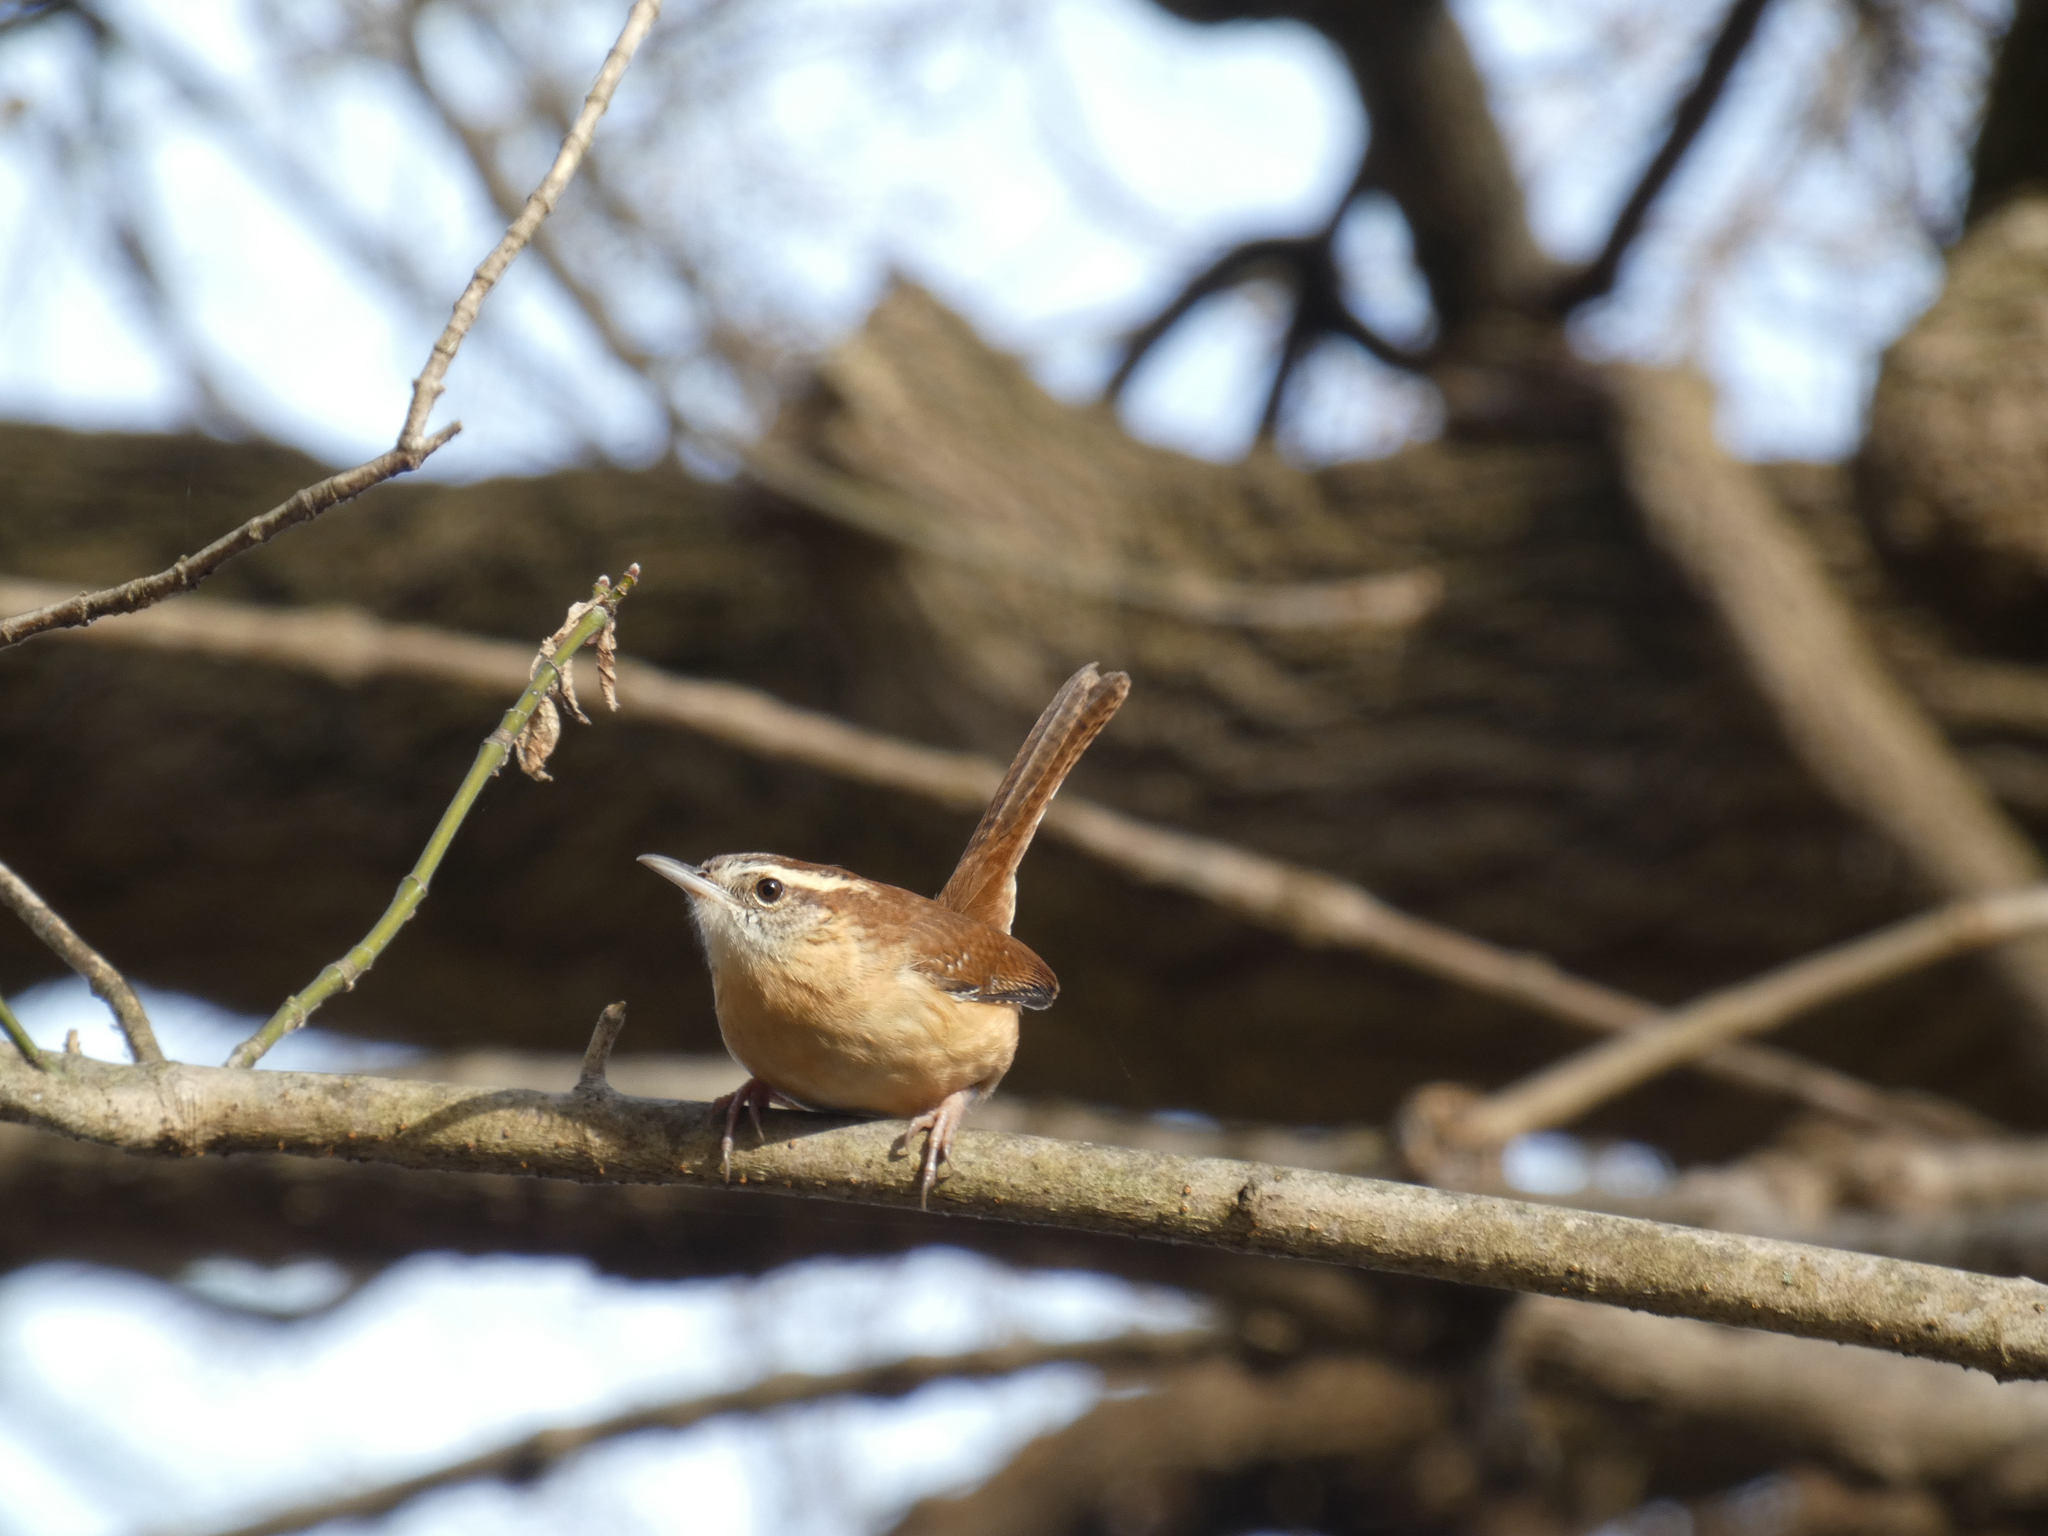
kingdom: Animalia
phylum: Chordata
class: Aves
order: Passeriformes
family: Troglodytidae
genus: Thryothorus
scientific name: Thryothorus ludovicianus
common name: Carolina wren
